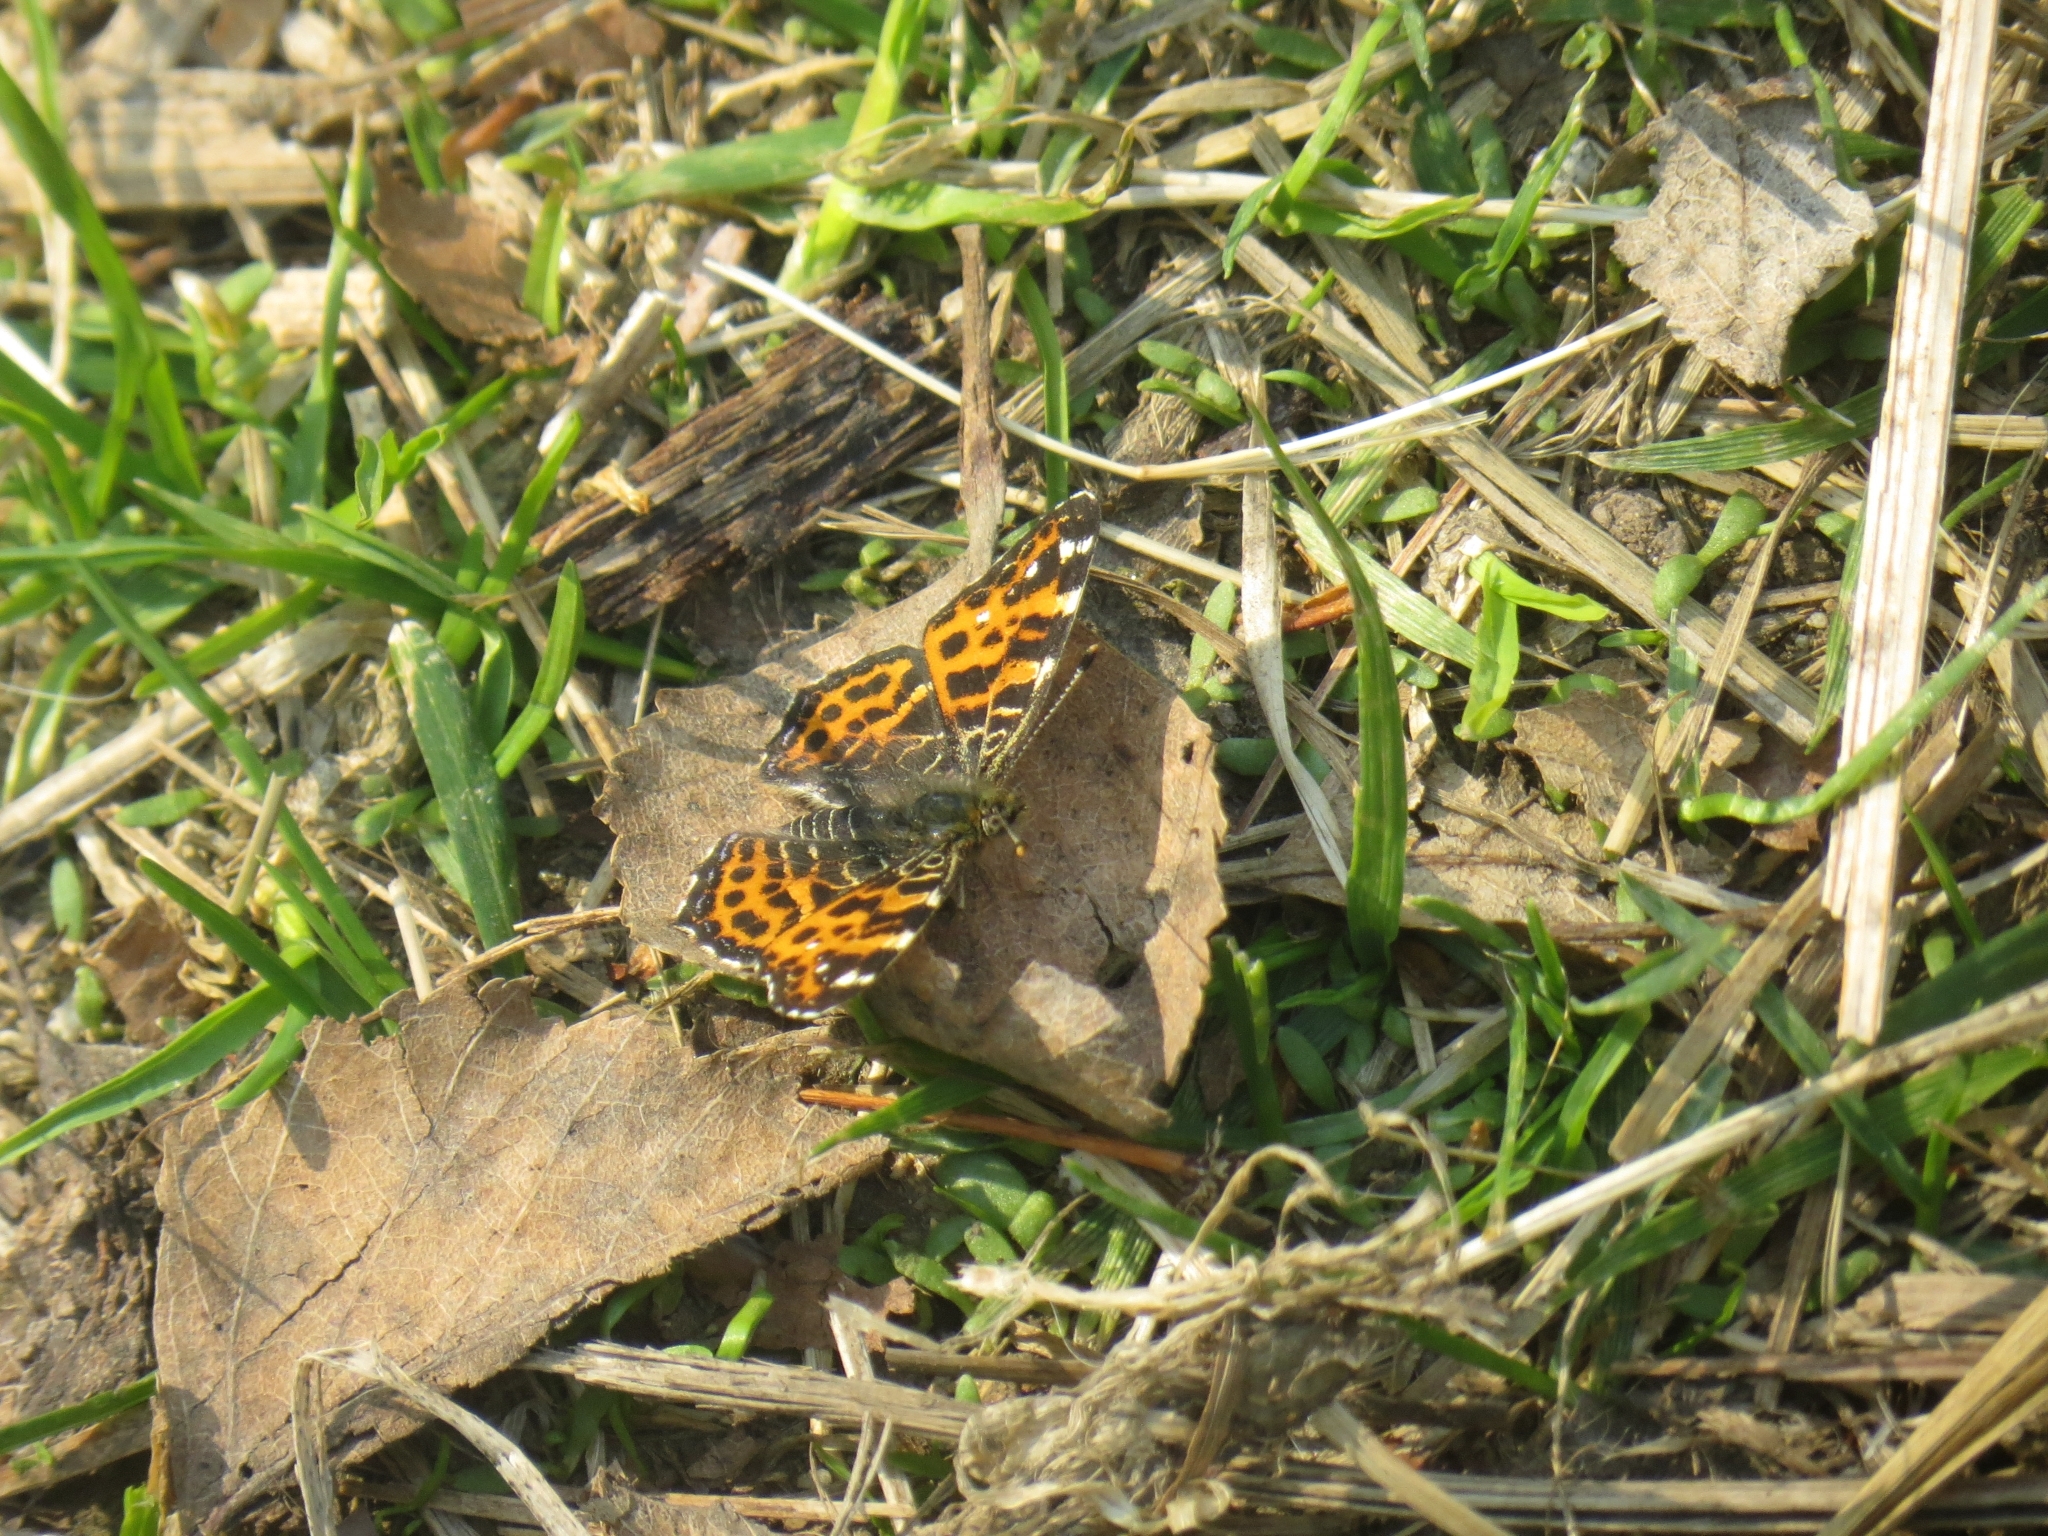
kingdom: Animalia
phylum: Arthropoda
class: Insecta
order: Lepidoptera
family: Nymphalidae
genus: Araschnia
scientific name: Araschnia levana
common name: Map butterfly
